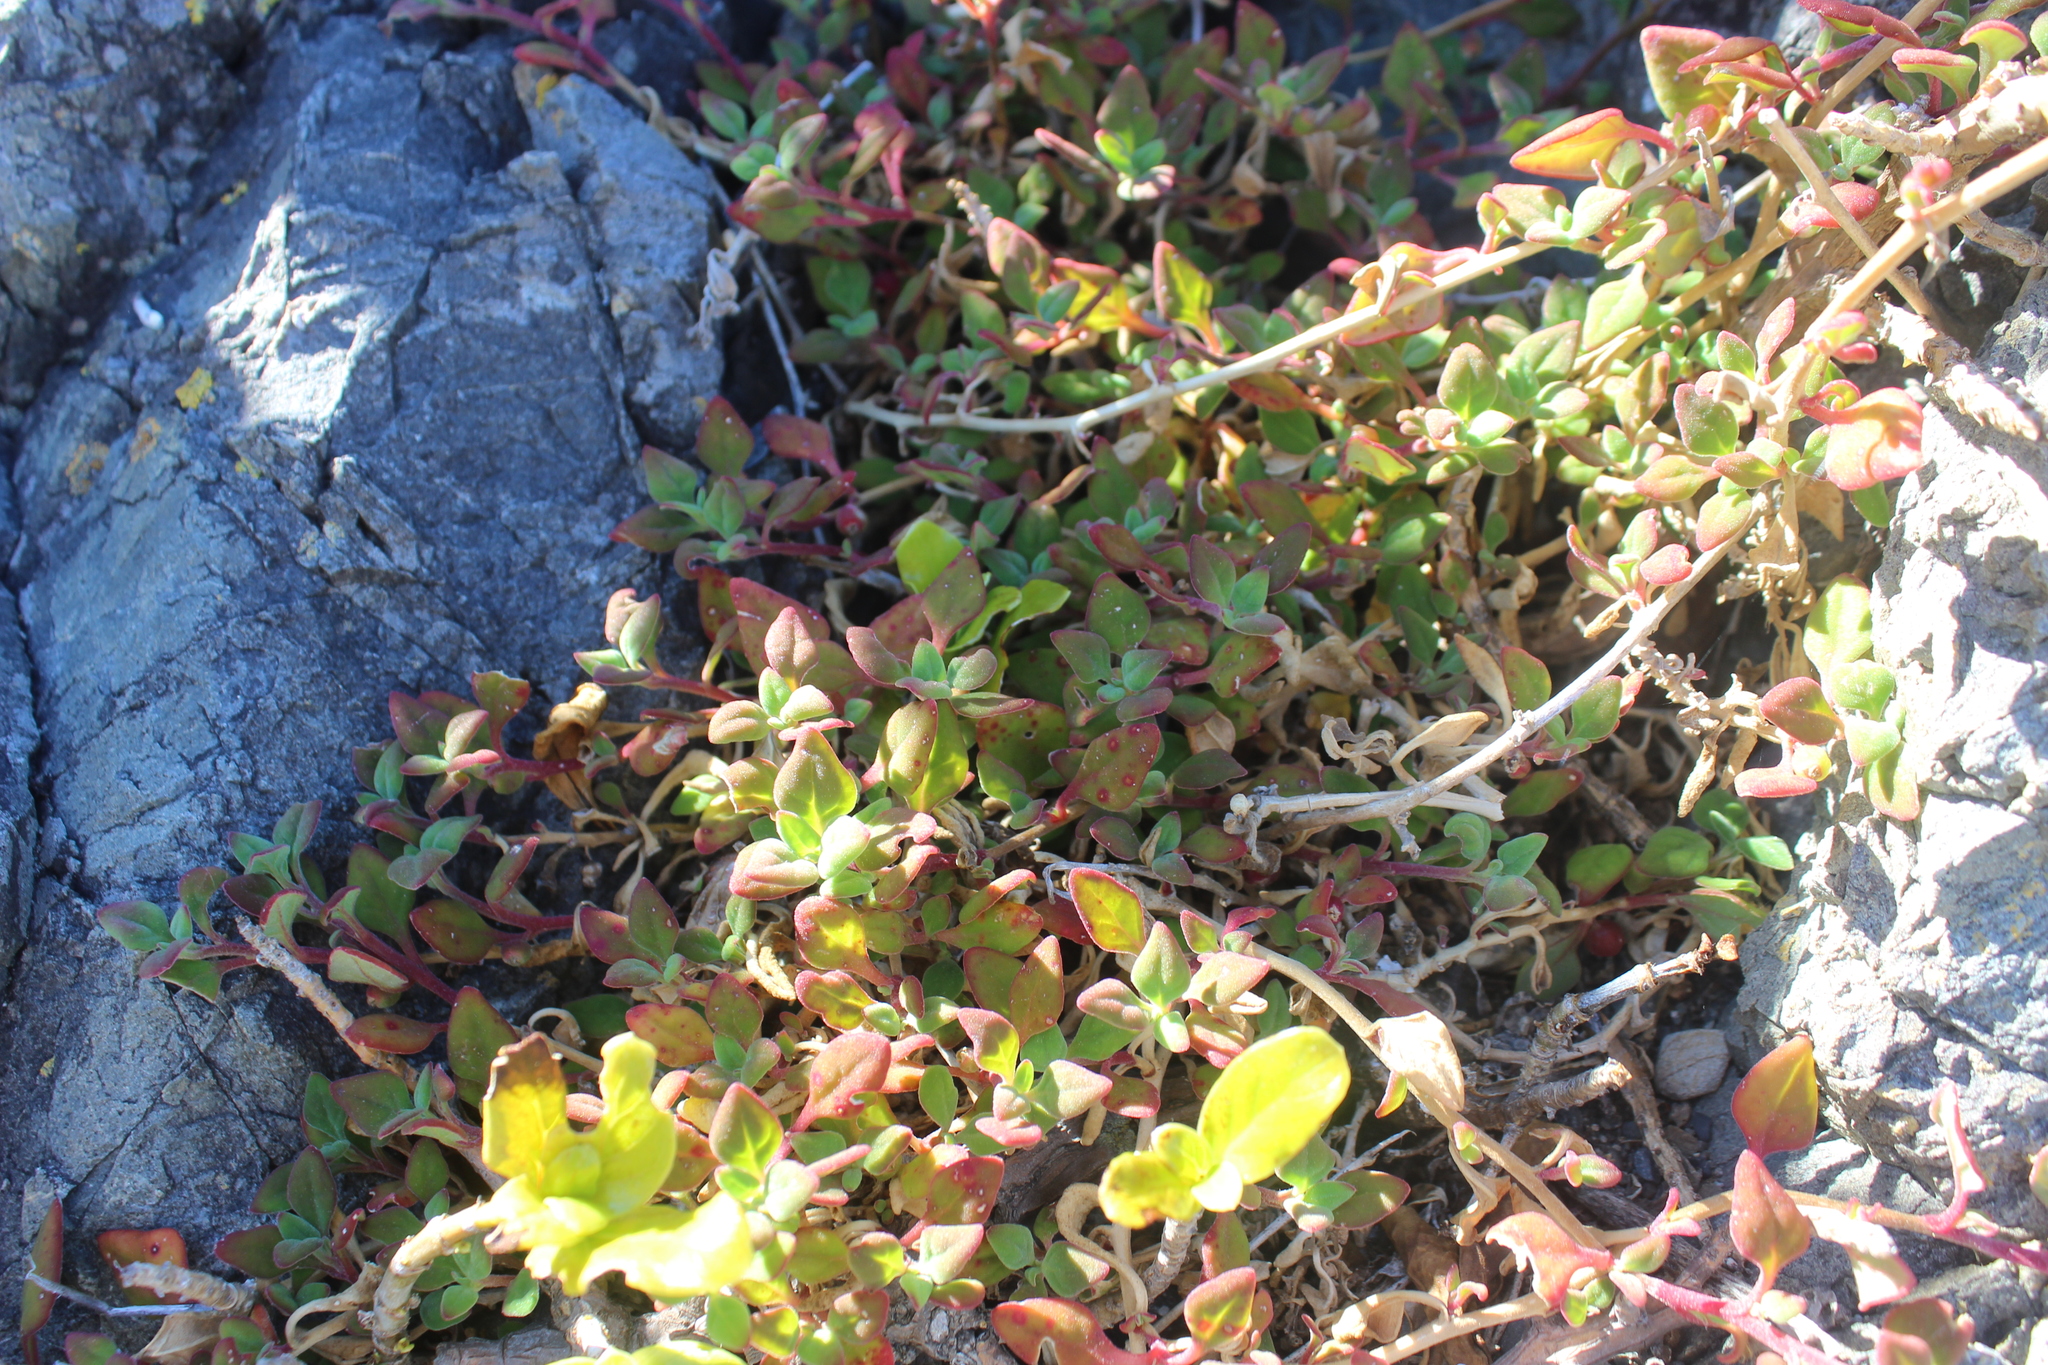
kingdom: Plantae
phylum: Tracheophyta
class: Magnoliopsida
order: Caryophyllales
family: Aizoaceae
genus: Tetragonia
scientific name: Tetragonia implexicoma
